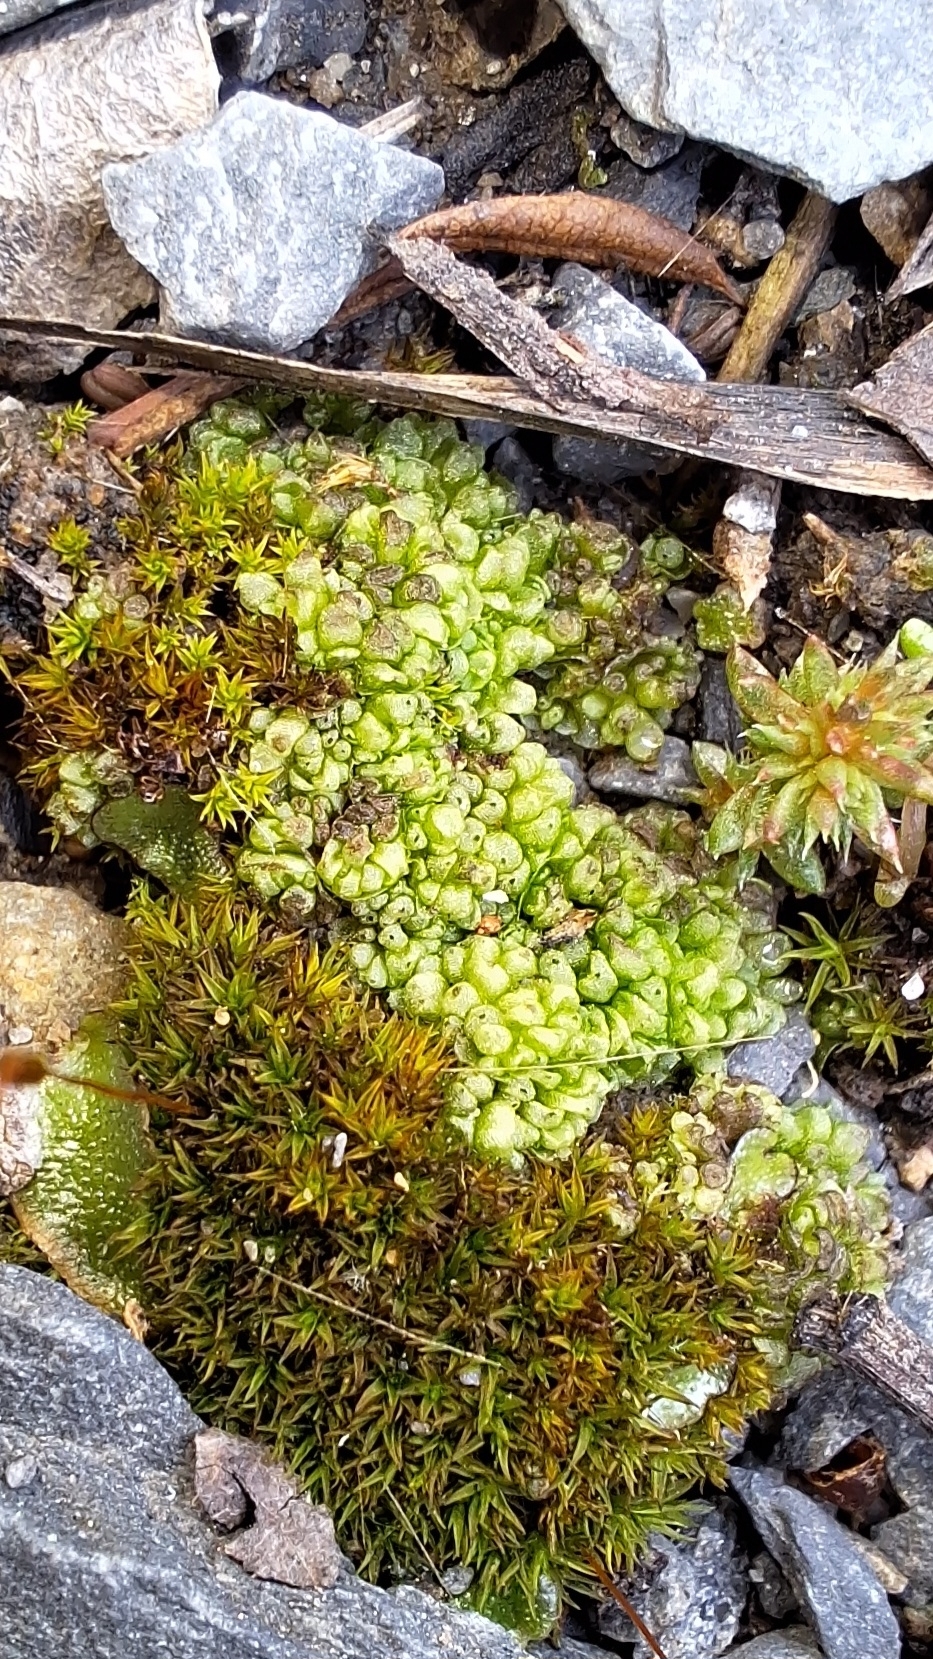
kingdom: Plantae
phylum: Marchantiophyta
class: Marchantiopsida
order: Sphaerocarpales
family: Sphaerocarpaceae
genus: Sphaerocarpos
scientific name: Sphaerocarpos texanus
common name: Texas balloonwort
